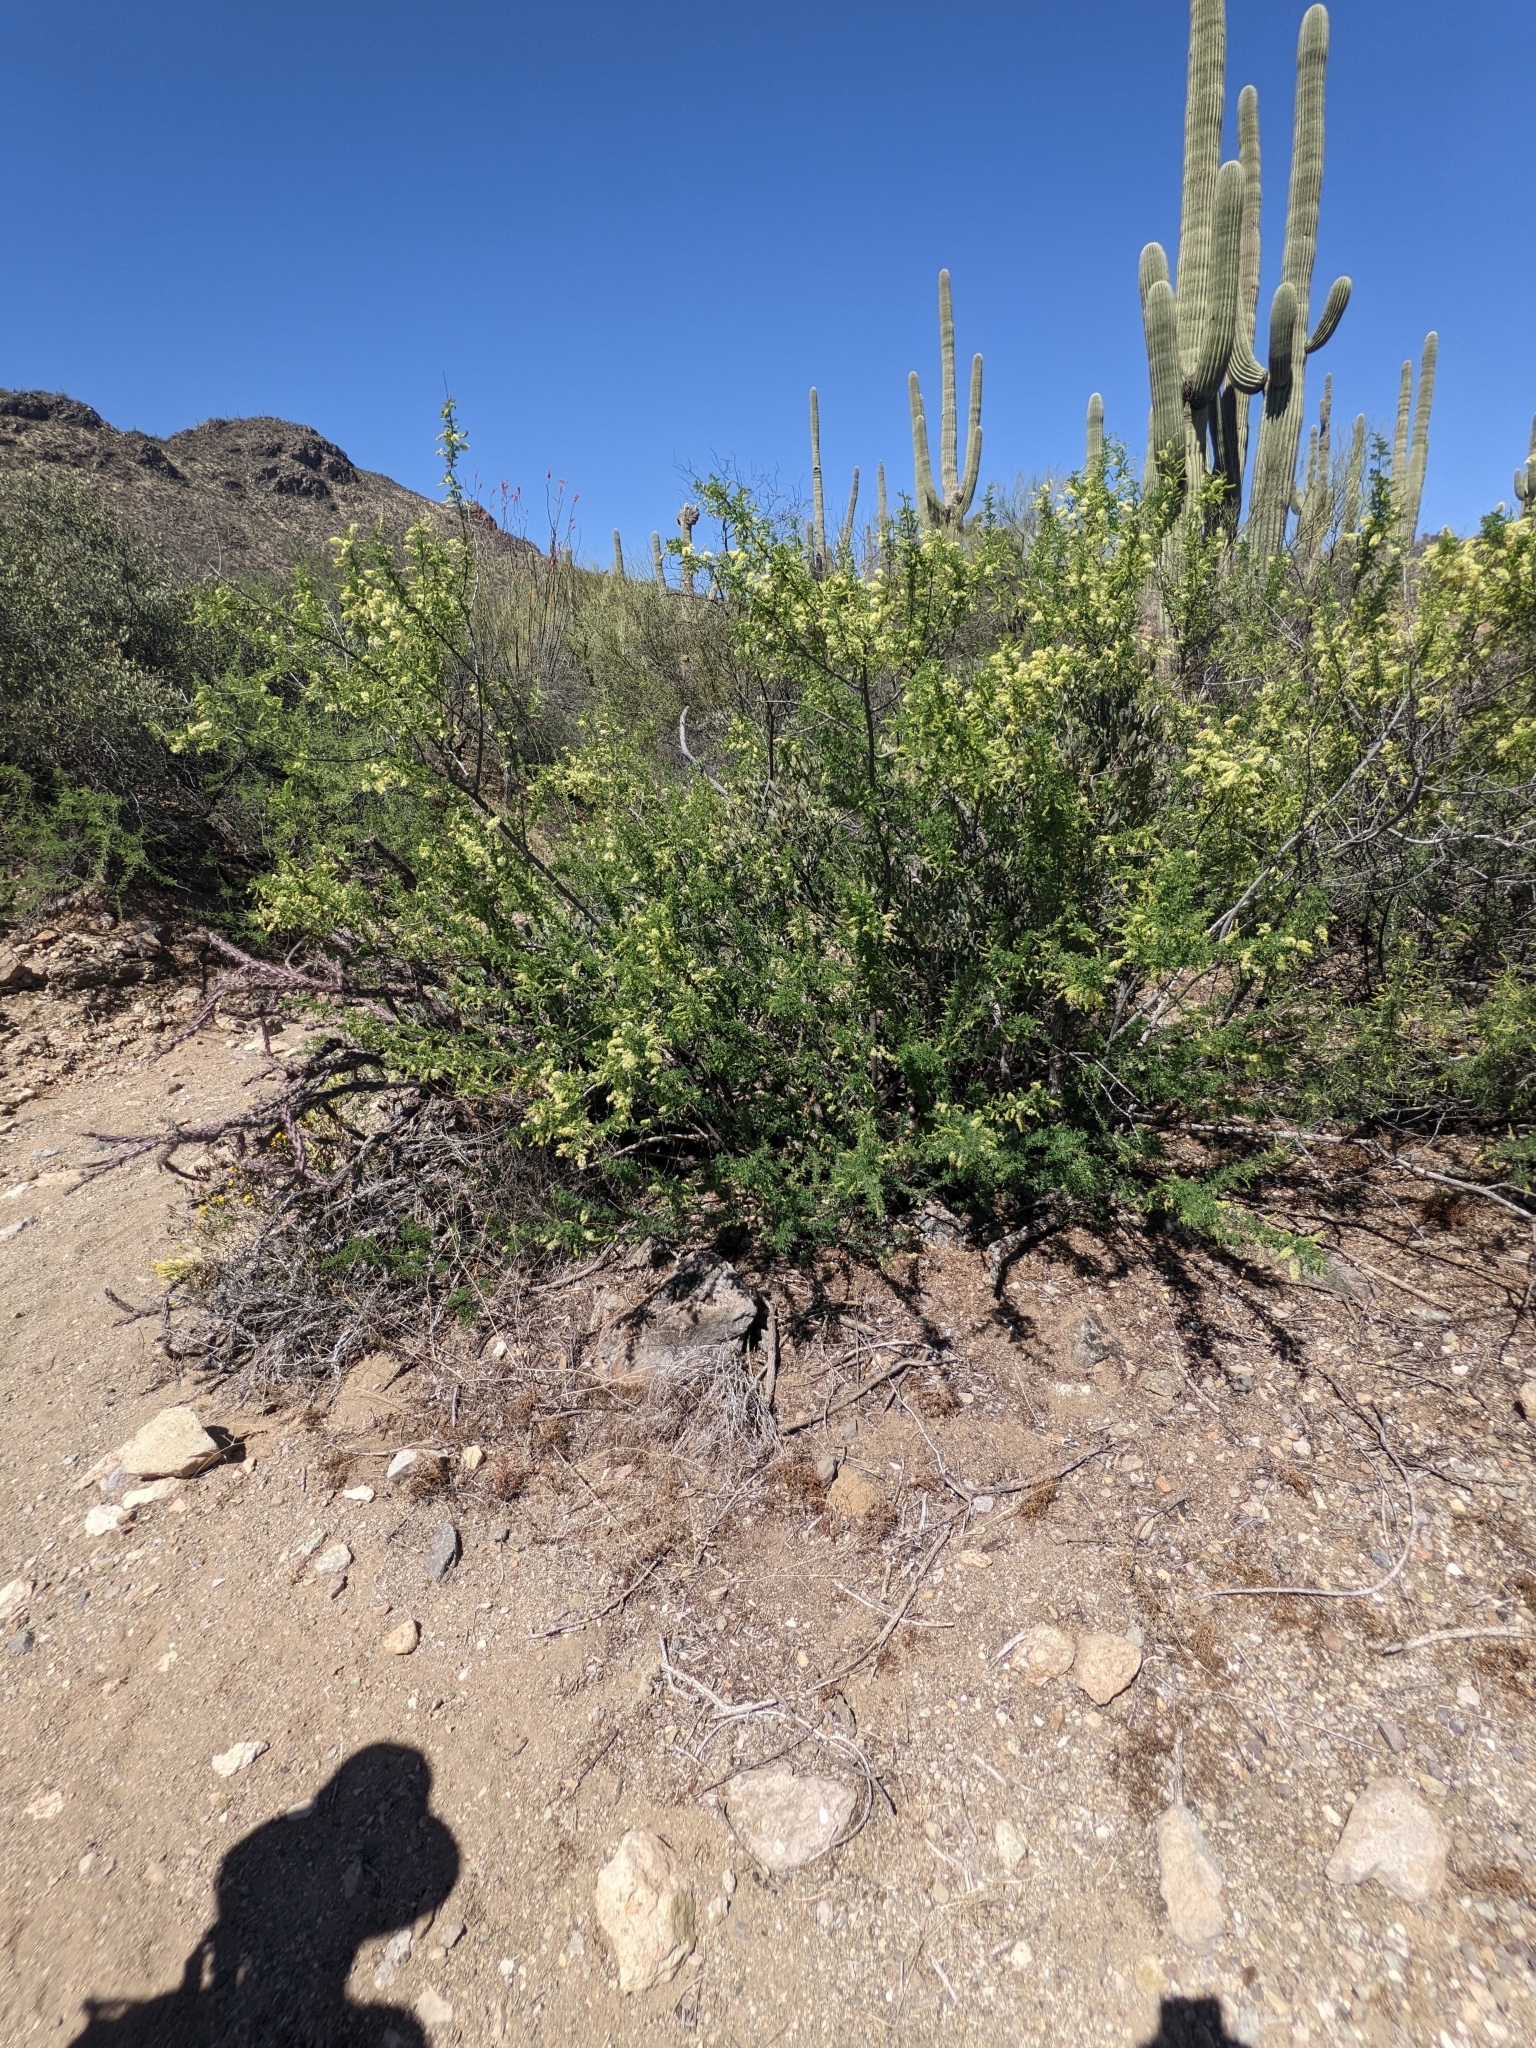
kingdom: Plantae
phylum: Tracheophyta
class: Magnoliopsida
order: Fabales
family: Fabaceae
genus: Senegalia
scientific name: Senegalia greggii
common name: Texas-mimosa
